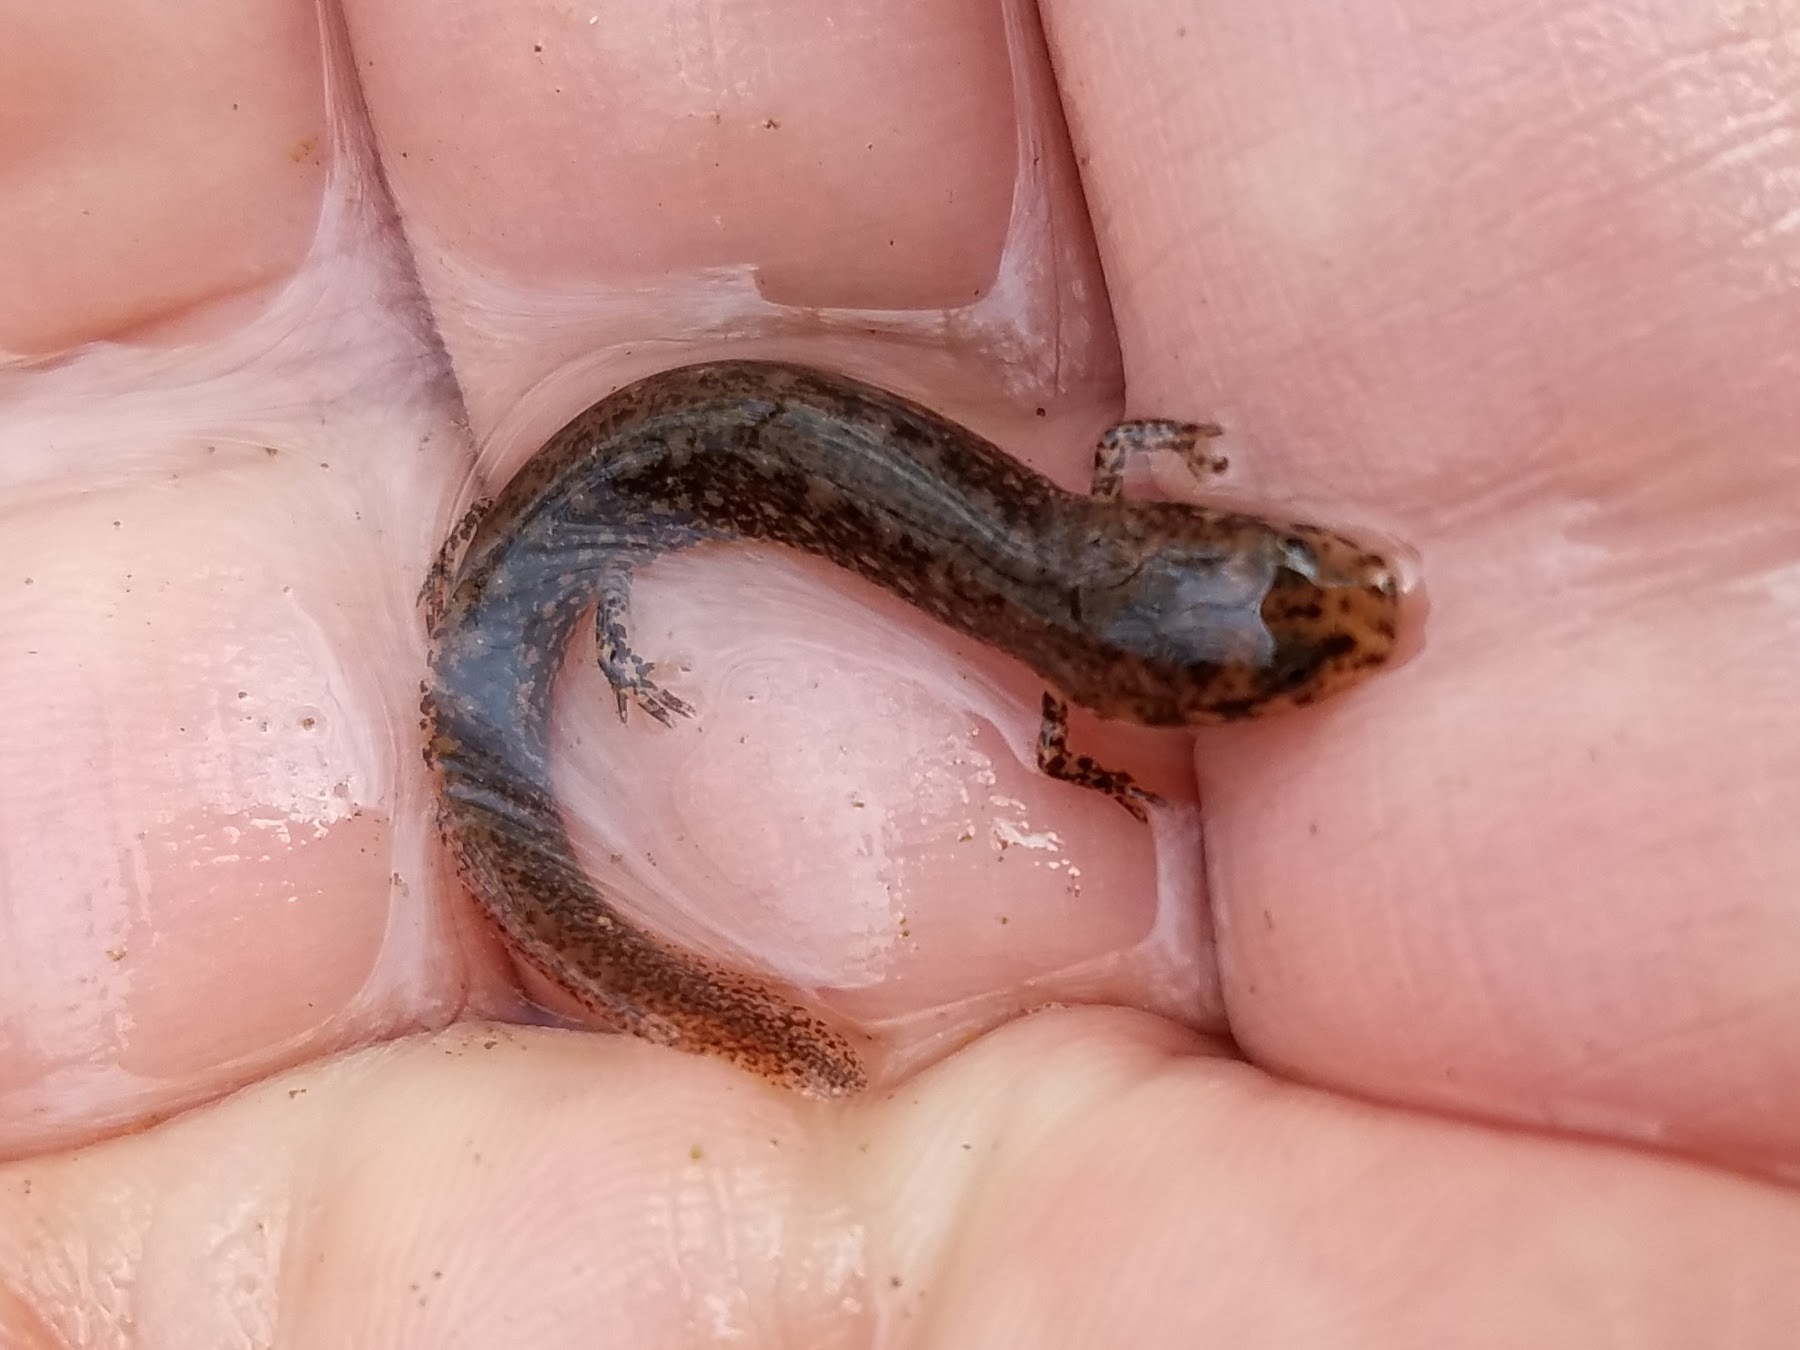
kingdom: Animalia
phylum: Chordata
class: Amphibia
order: Caudata
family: Plethodontidae
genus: Eurycea
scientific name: Eurycea cirrigera
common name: Southern two-lined salamander
